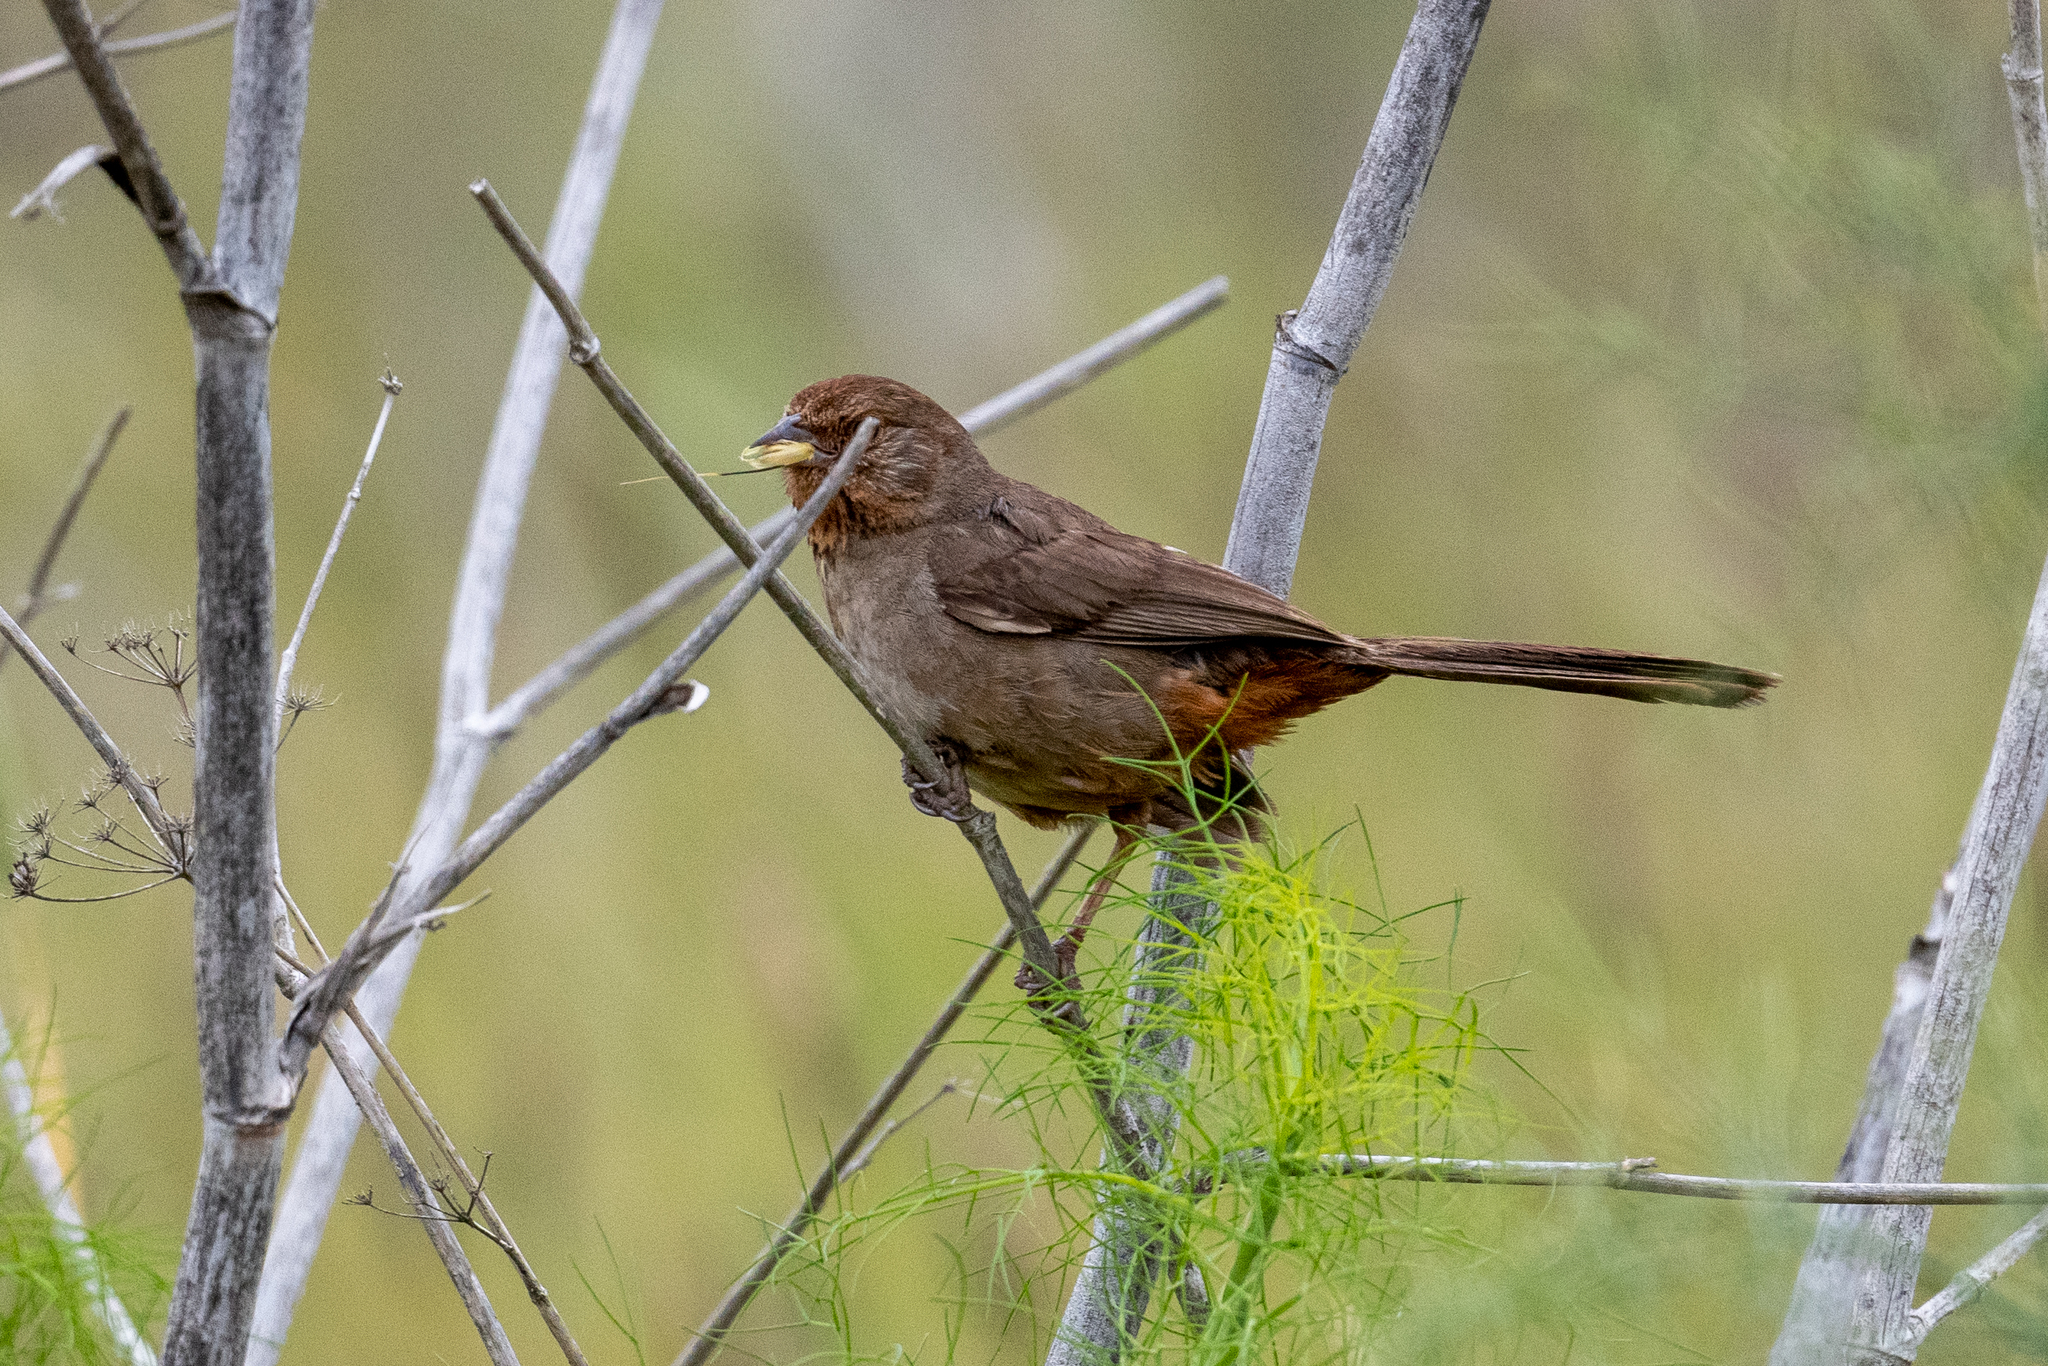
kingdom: Animalia
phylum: Chordata
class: Aves
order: Passeriformes
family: Passerellidae
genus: Melozone
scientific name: Melozone crissalis
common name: California towhee
